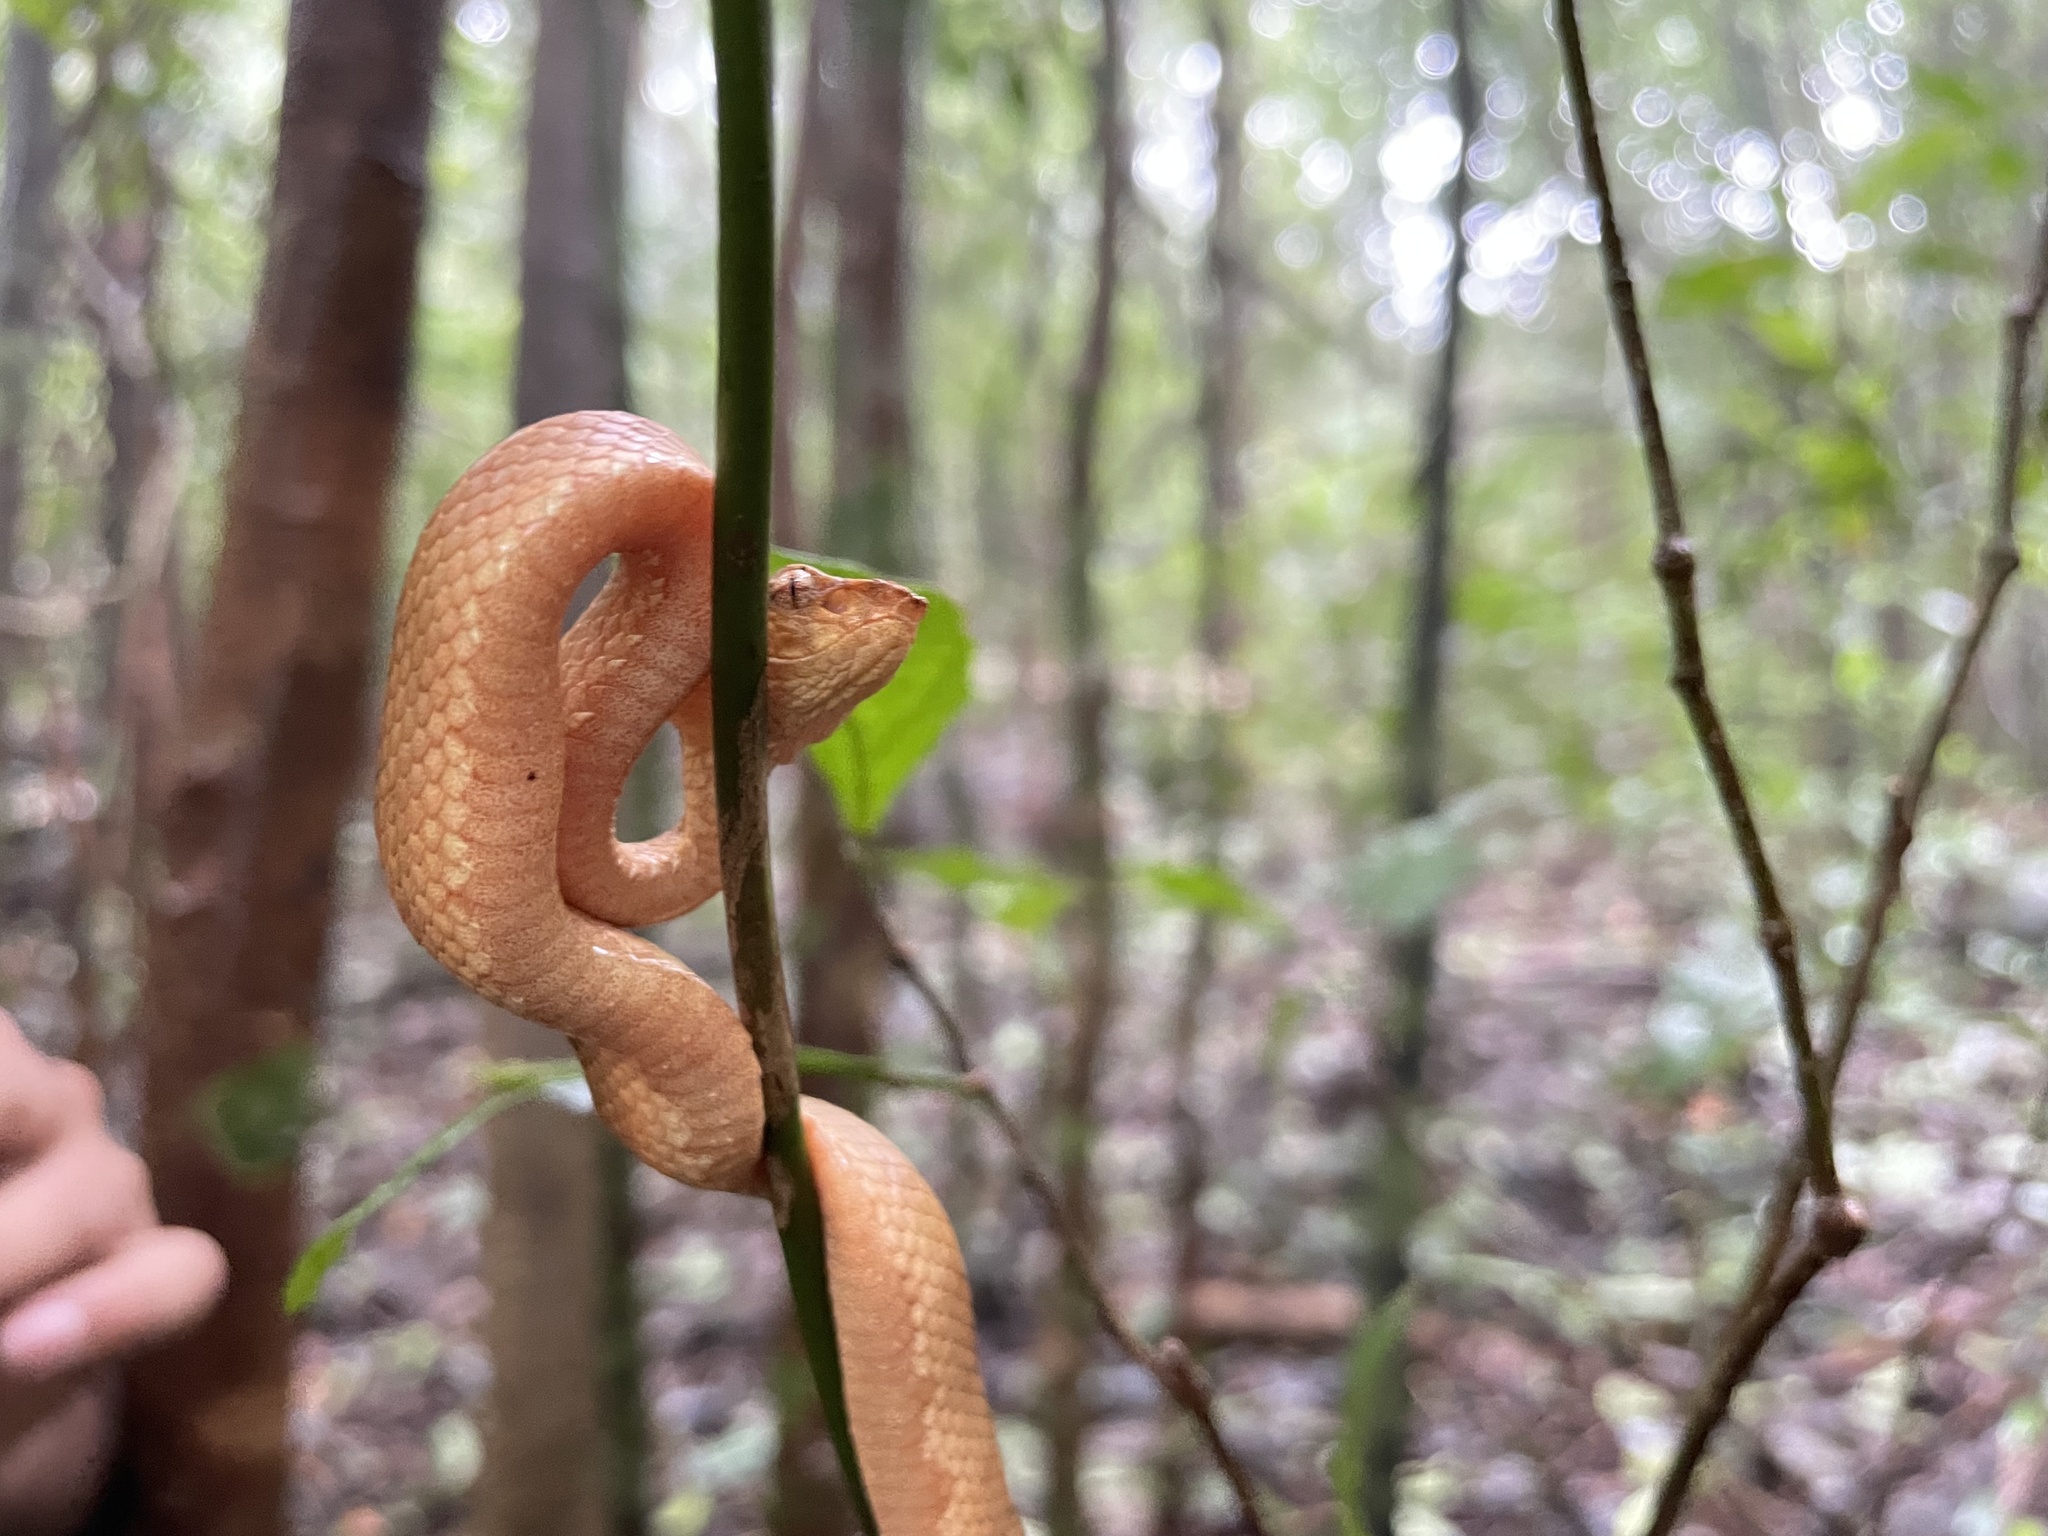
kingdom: Animalia
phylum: Chordata
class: Squamata
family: Viperidae
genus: Craspedocephalus
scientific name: Craspedocephalus malabaricus
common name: Malabarian pit viper
